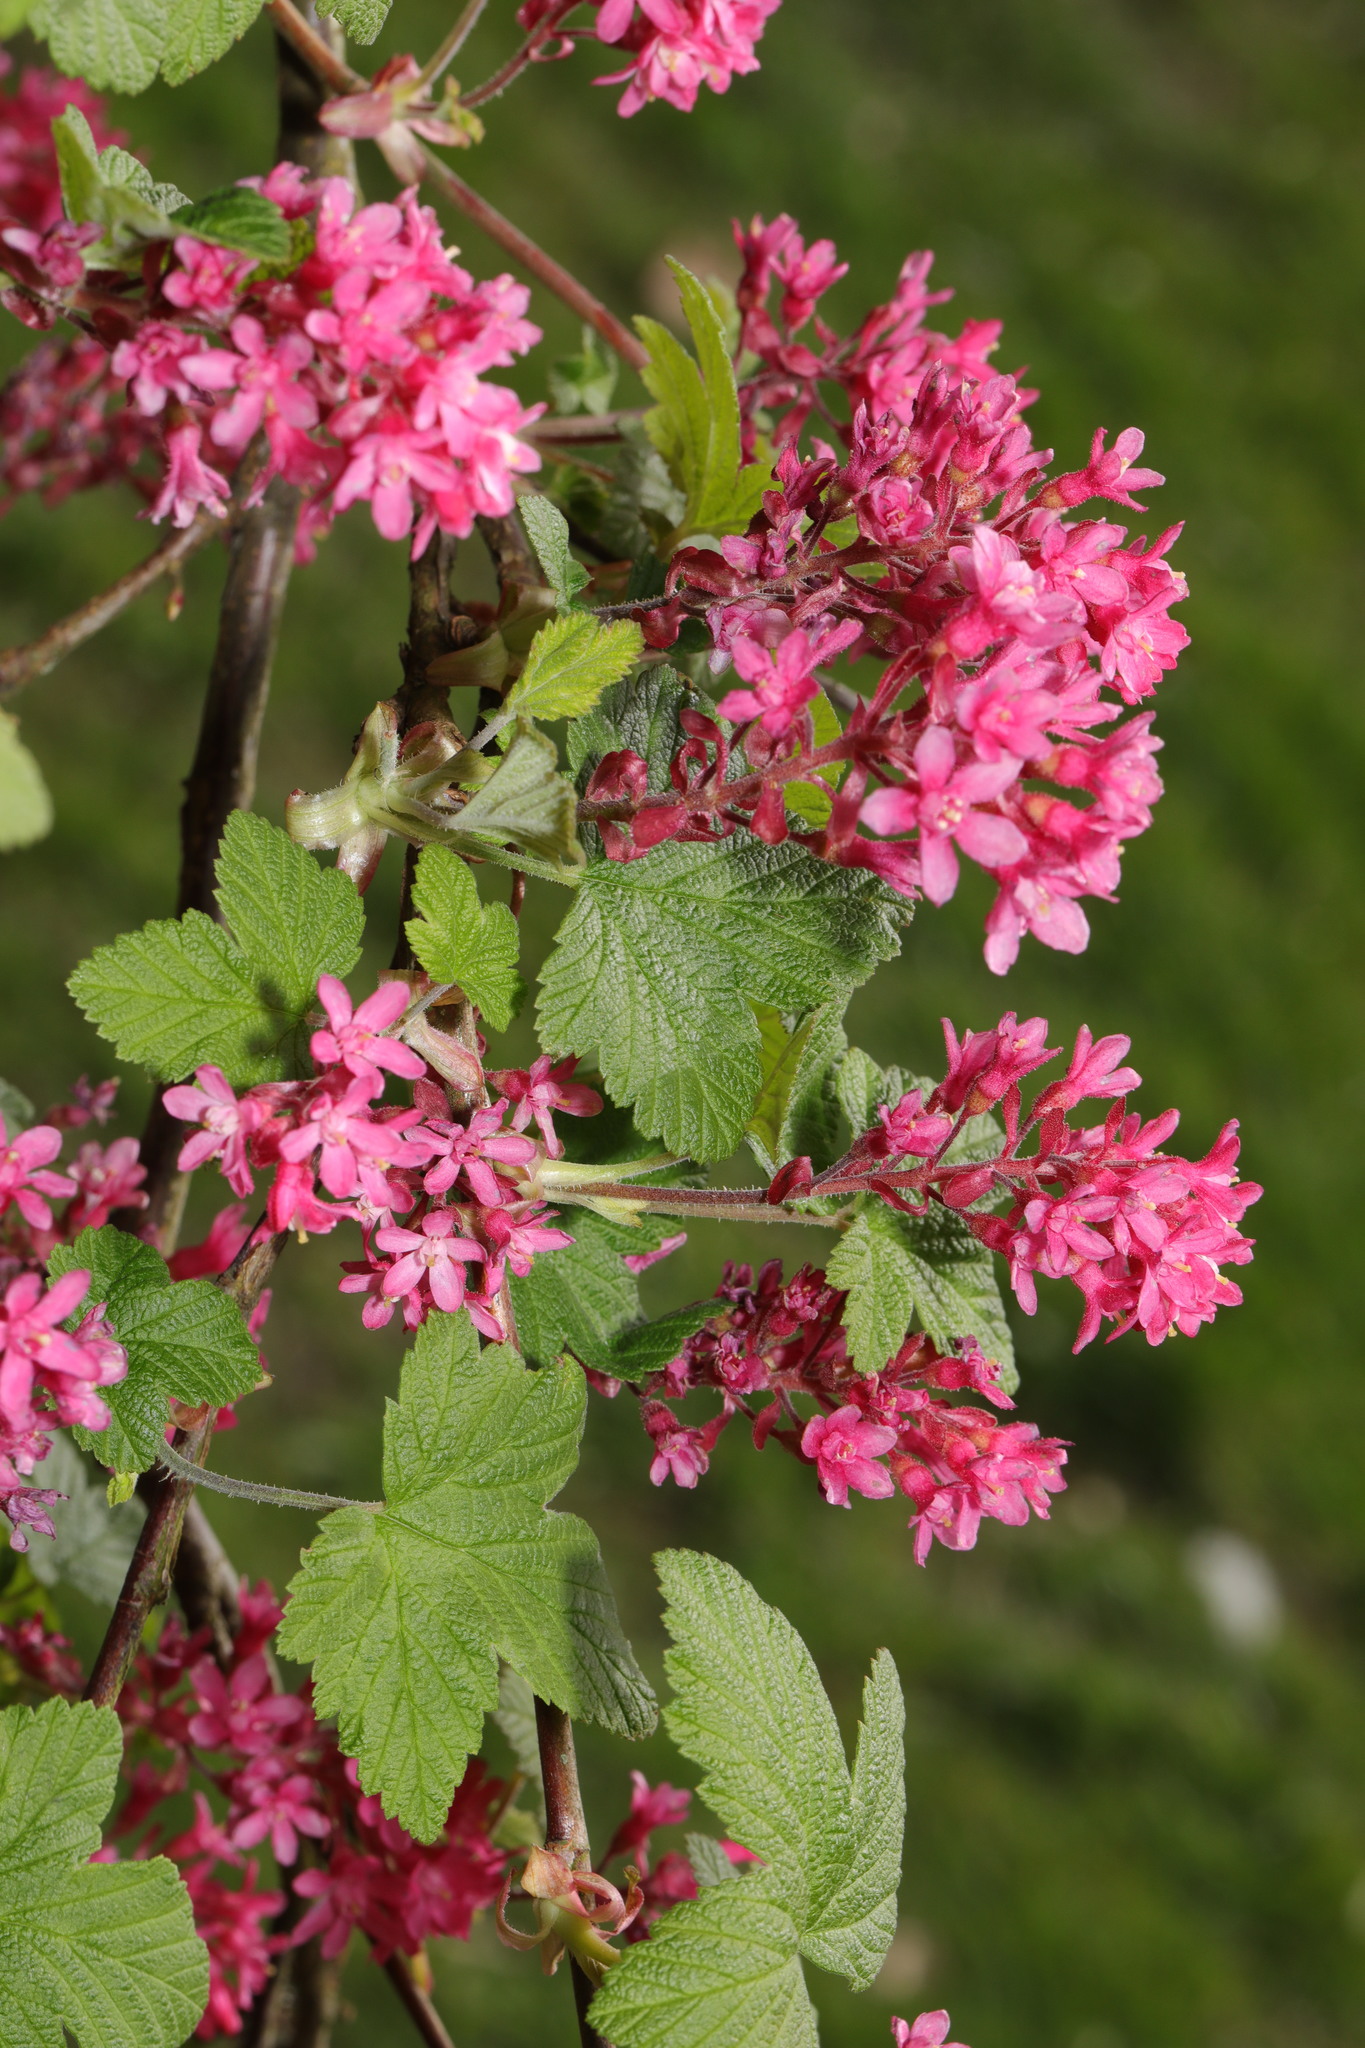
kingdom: Plantae
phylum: Tracheophyta
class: Magnoliopsida
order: Saxifragales
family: Grossulariaceae
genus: Ribes
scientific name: Ribes sanguineum
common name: Flowering currant
